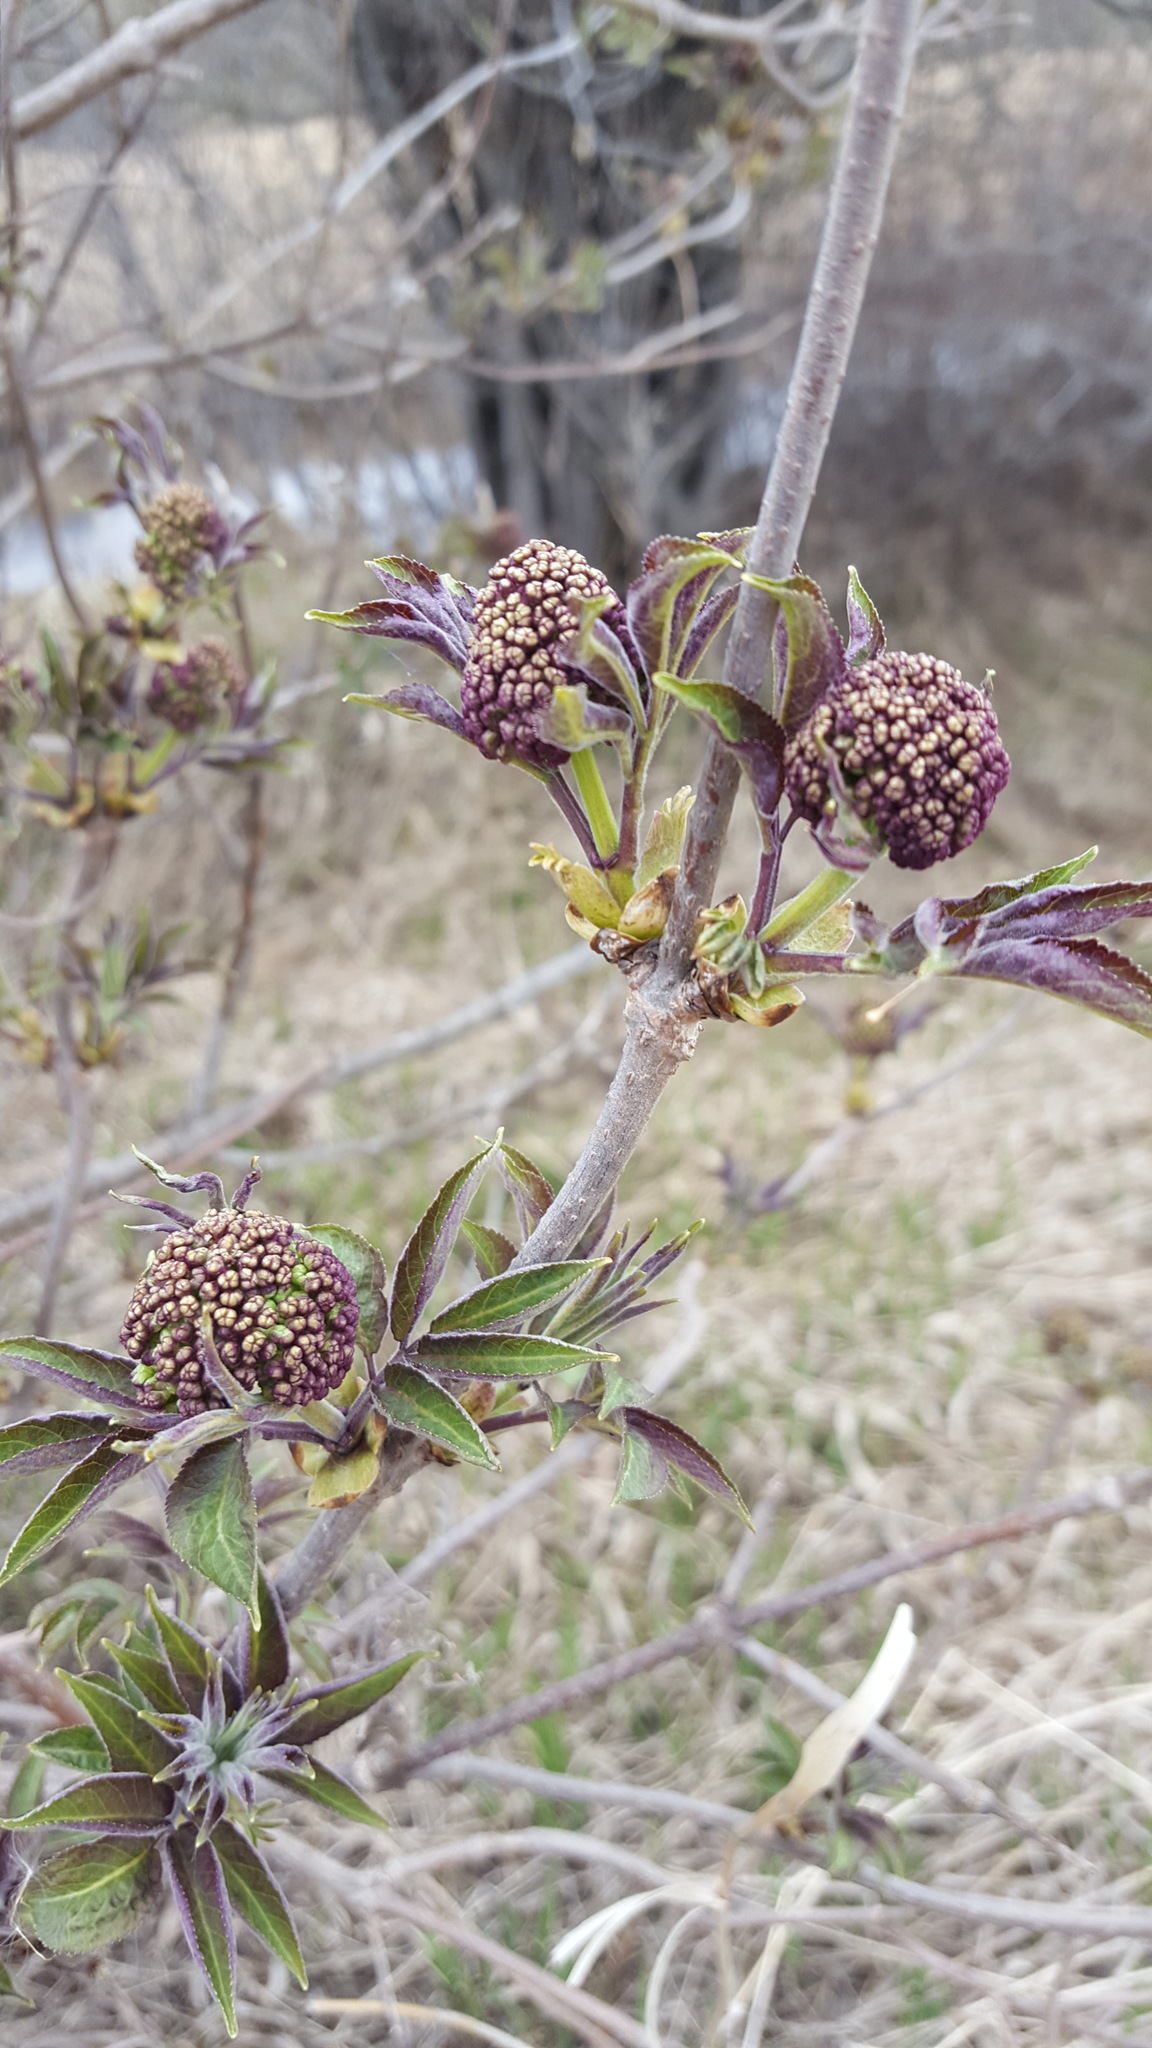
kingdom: Plantae
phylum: Tracheophyta
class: Magnoliopsida
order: Dipsacales
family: Viburnaceae
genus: Sambucus
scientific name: Sambucus racemosa
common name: Red-berried elder
